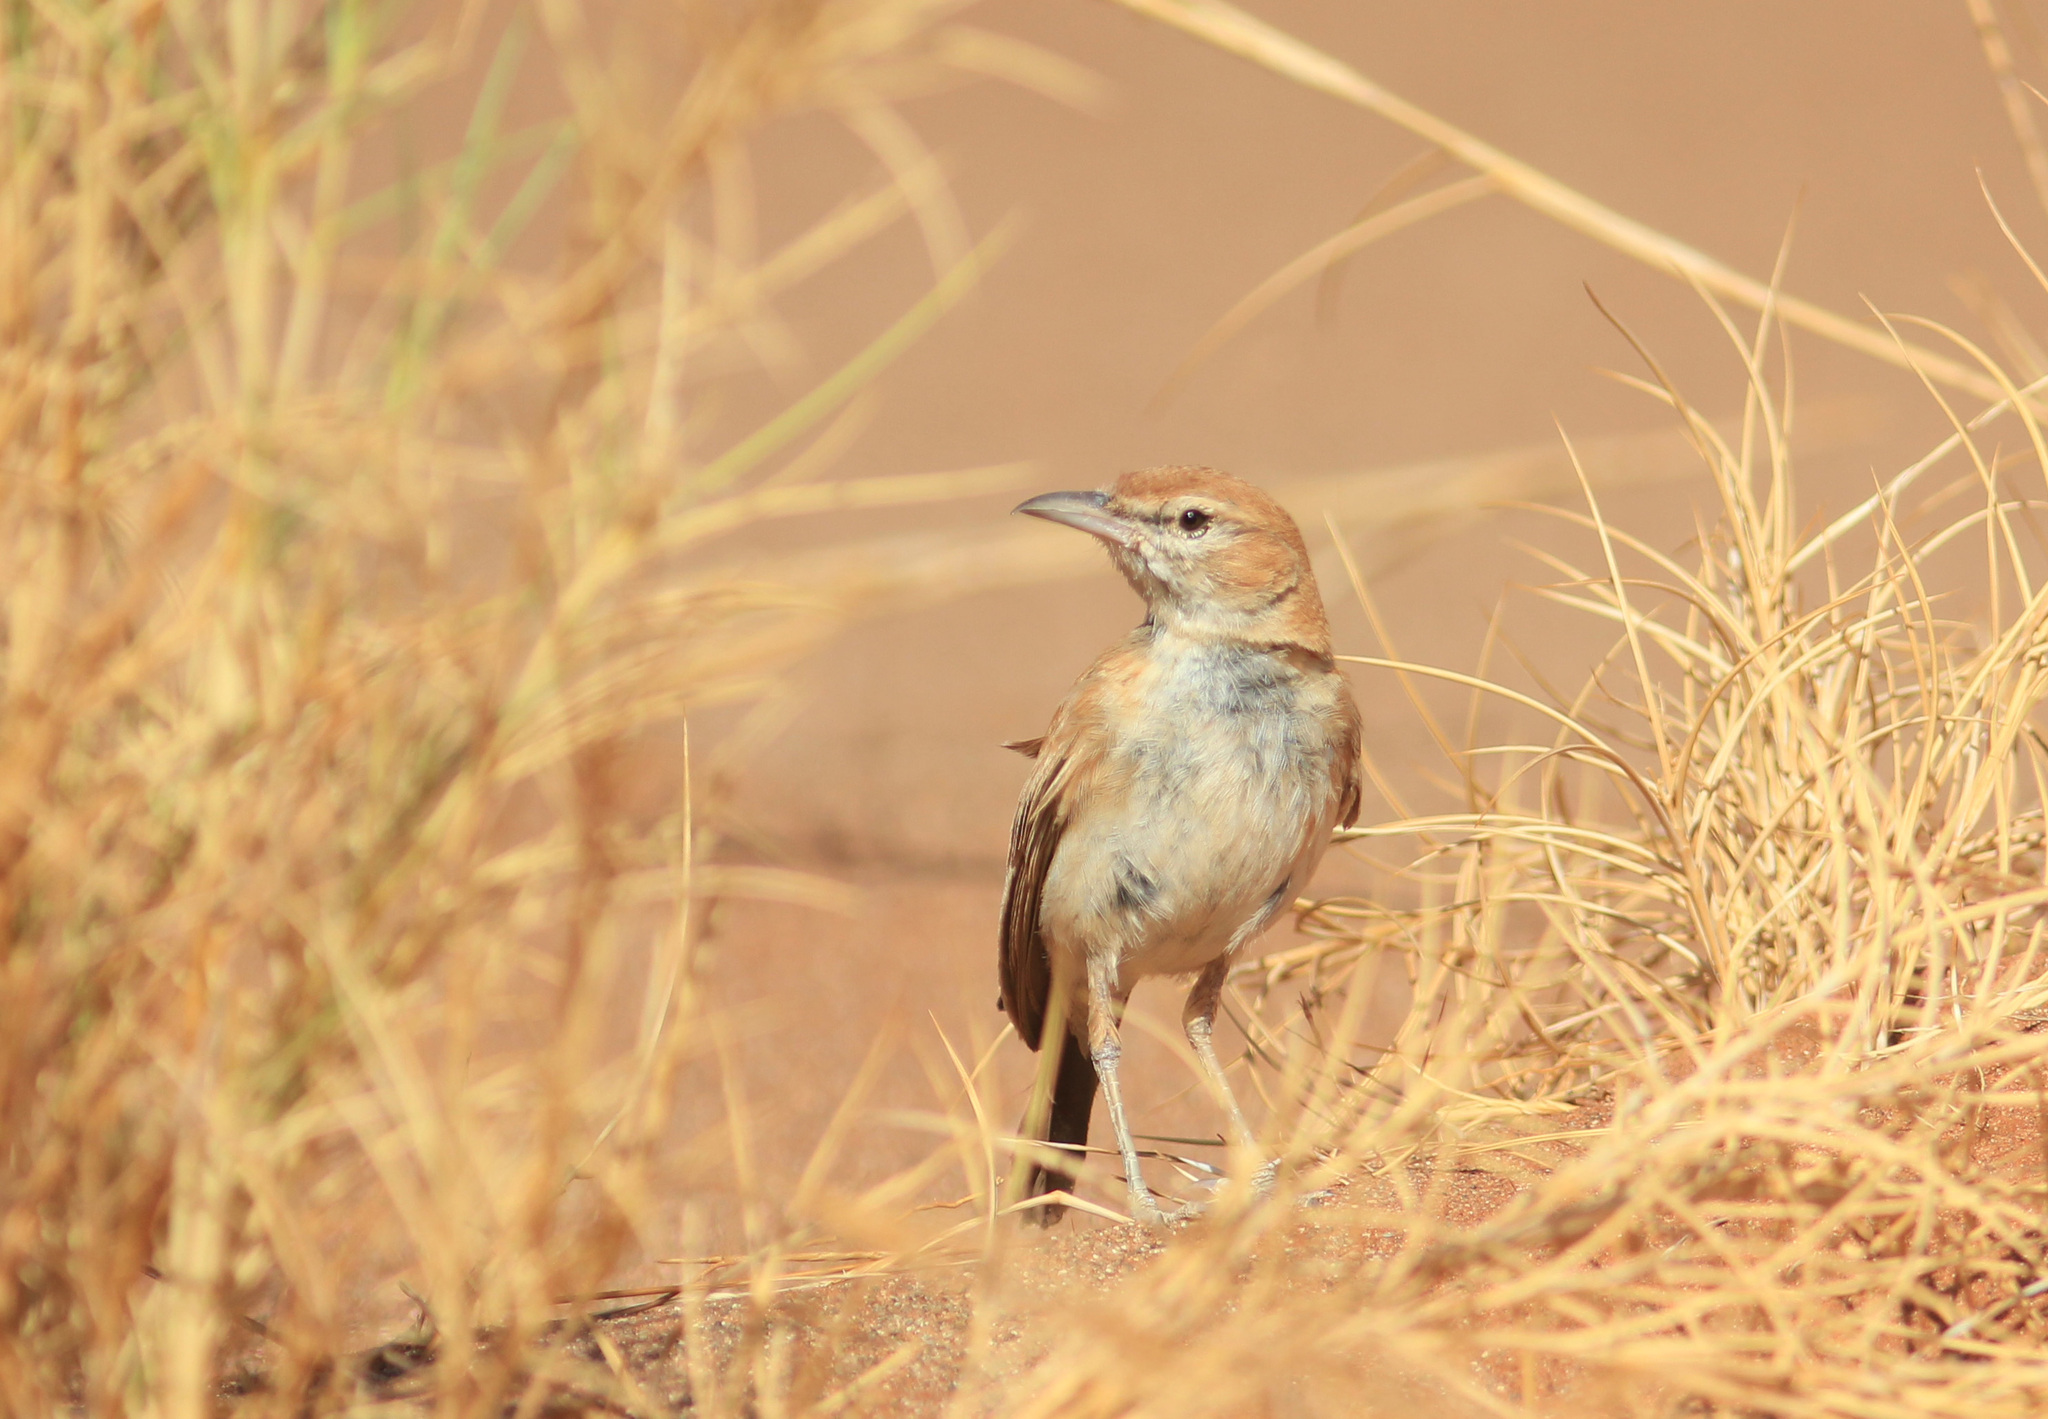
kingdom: Animalia
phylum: Chordata
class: Aves
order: Passeriformes
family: Alaudidae
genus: Calendulauda
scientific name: Calendulauda erythrochlamys
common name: Dune lark
